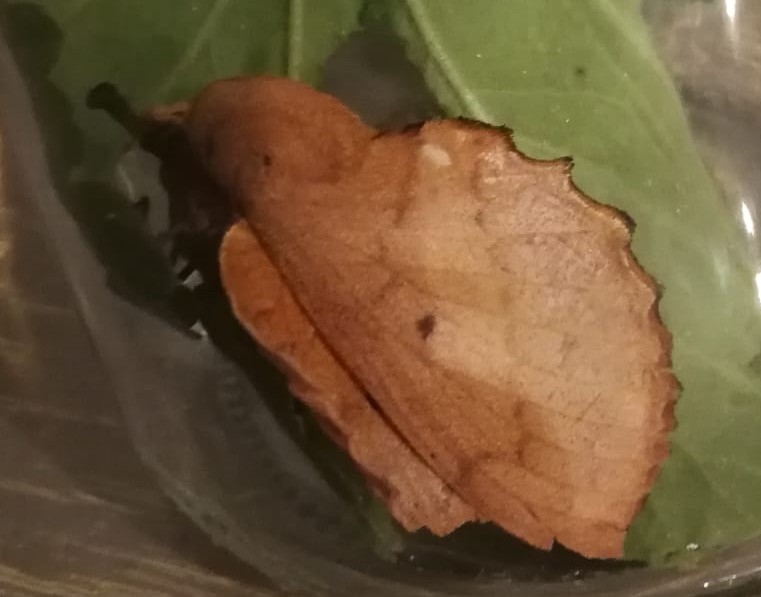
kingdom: Animalia
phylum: Arthropoda
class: Insecta
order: Lepidoptera
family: Lasiocampidae
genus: Gastropacha
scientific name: Gastropacha quercifolia
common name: Lappet
